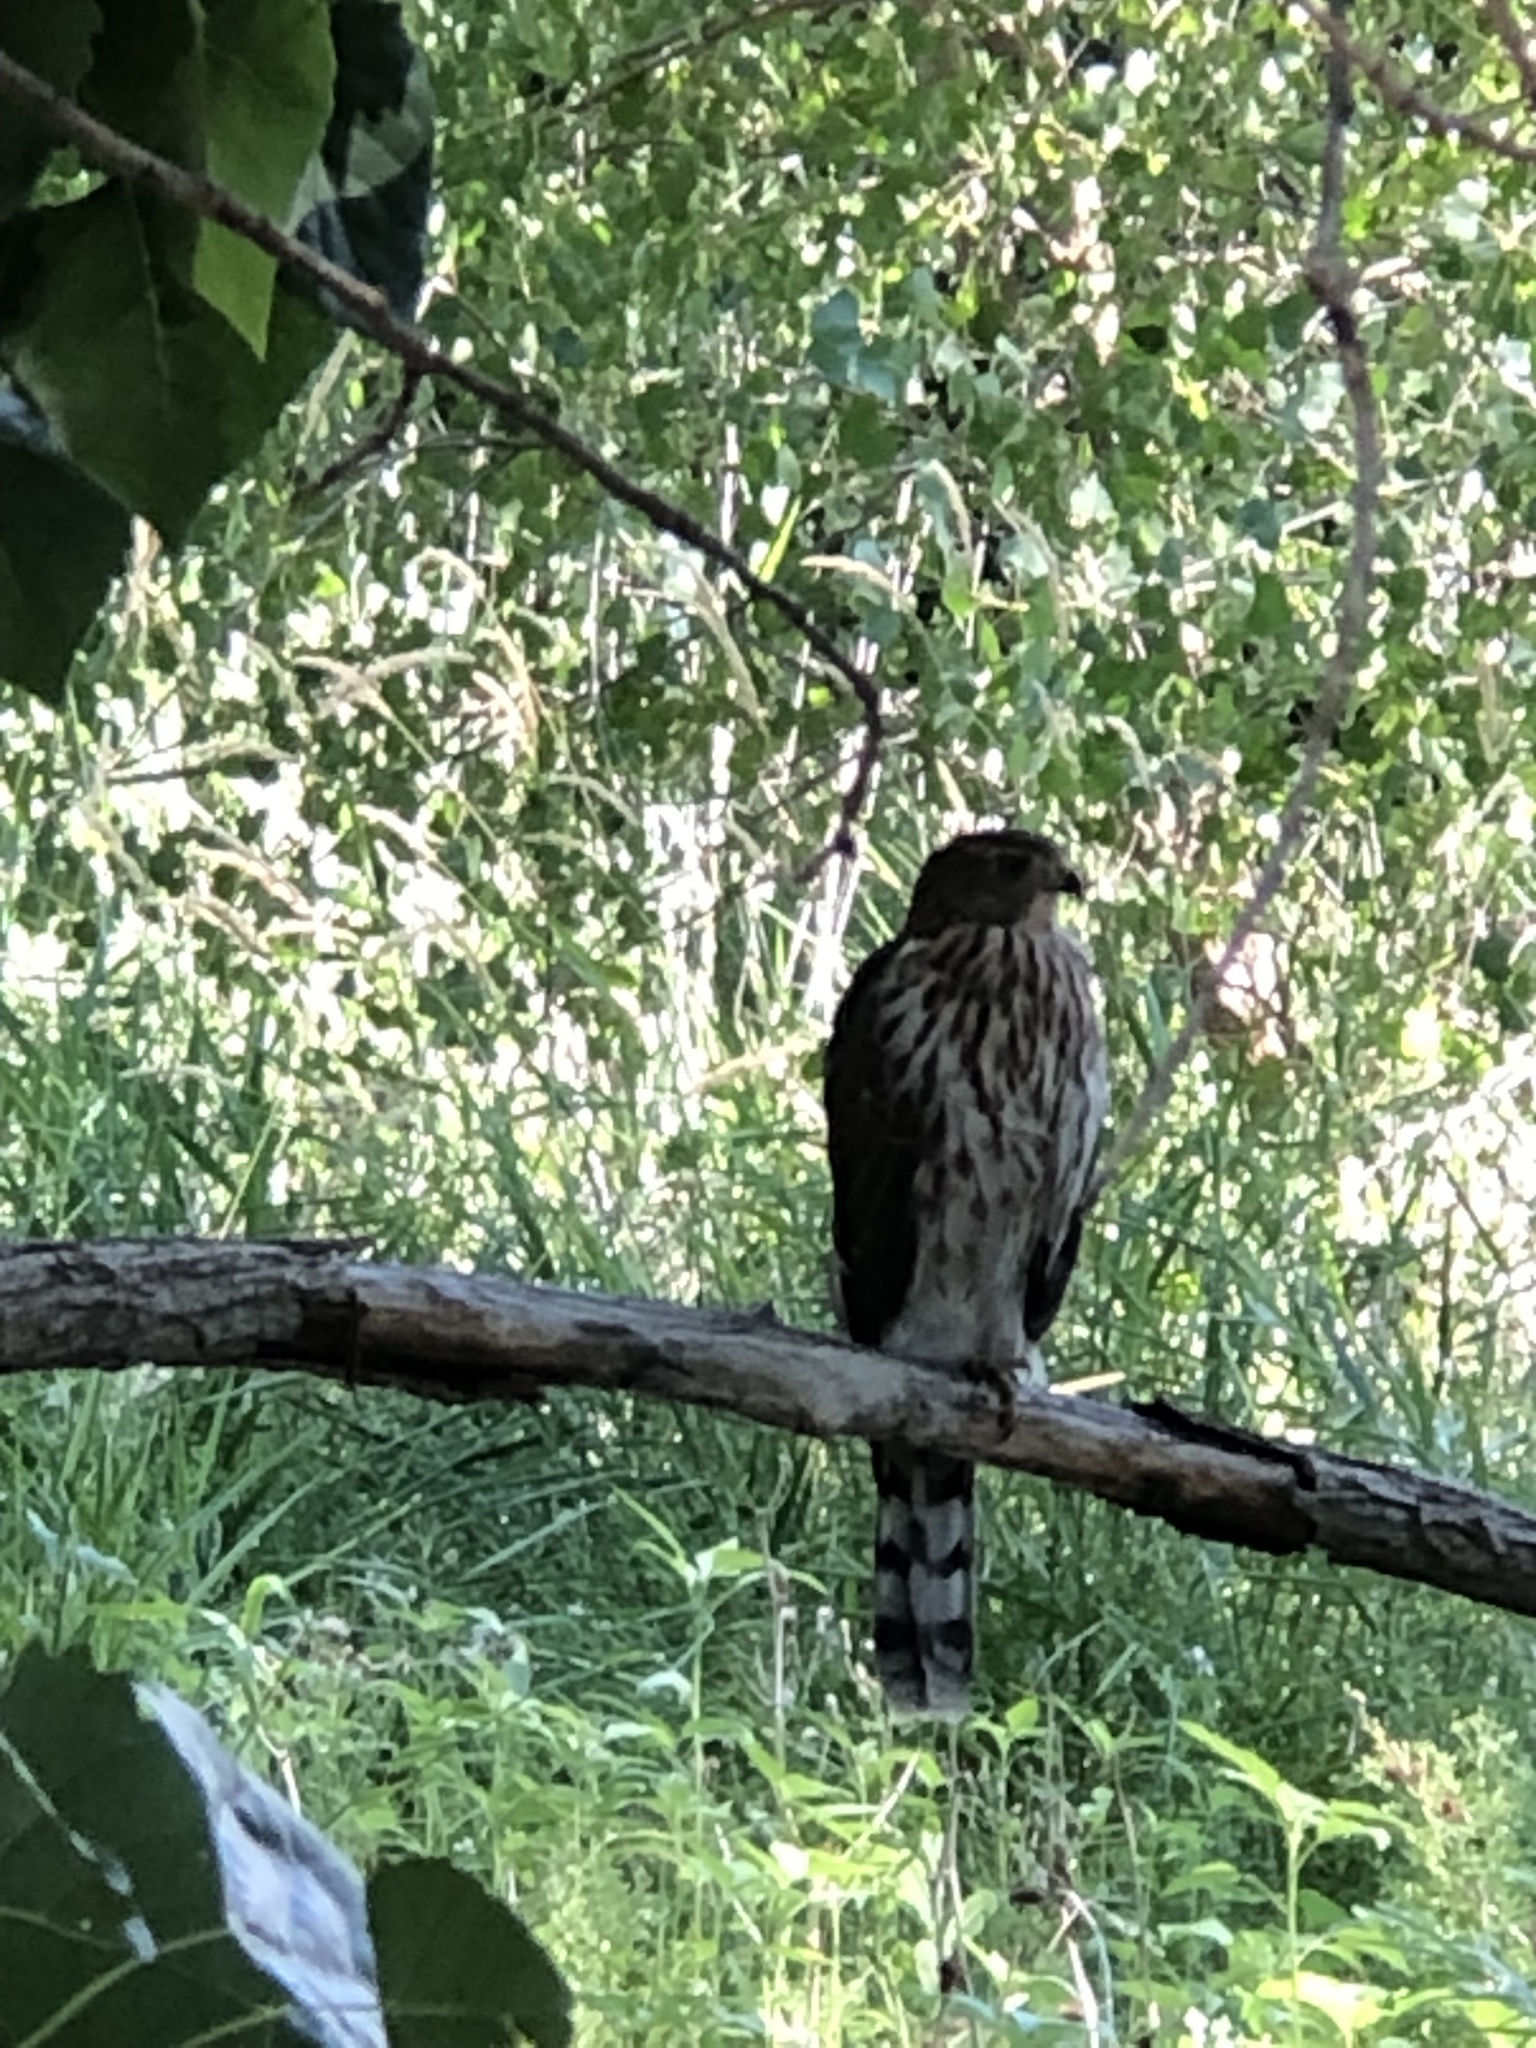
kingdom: Animalia
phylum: Chordata
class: Aves
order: Accipitriformes
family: Accipitridae
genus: Accipiter
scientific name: Accipiter cooperii
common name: Cooper's hawk
